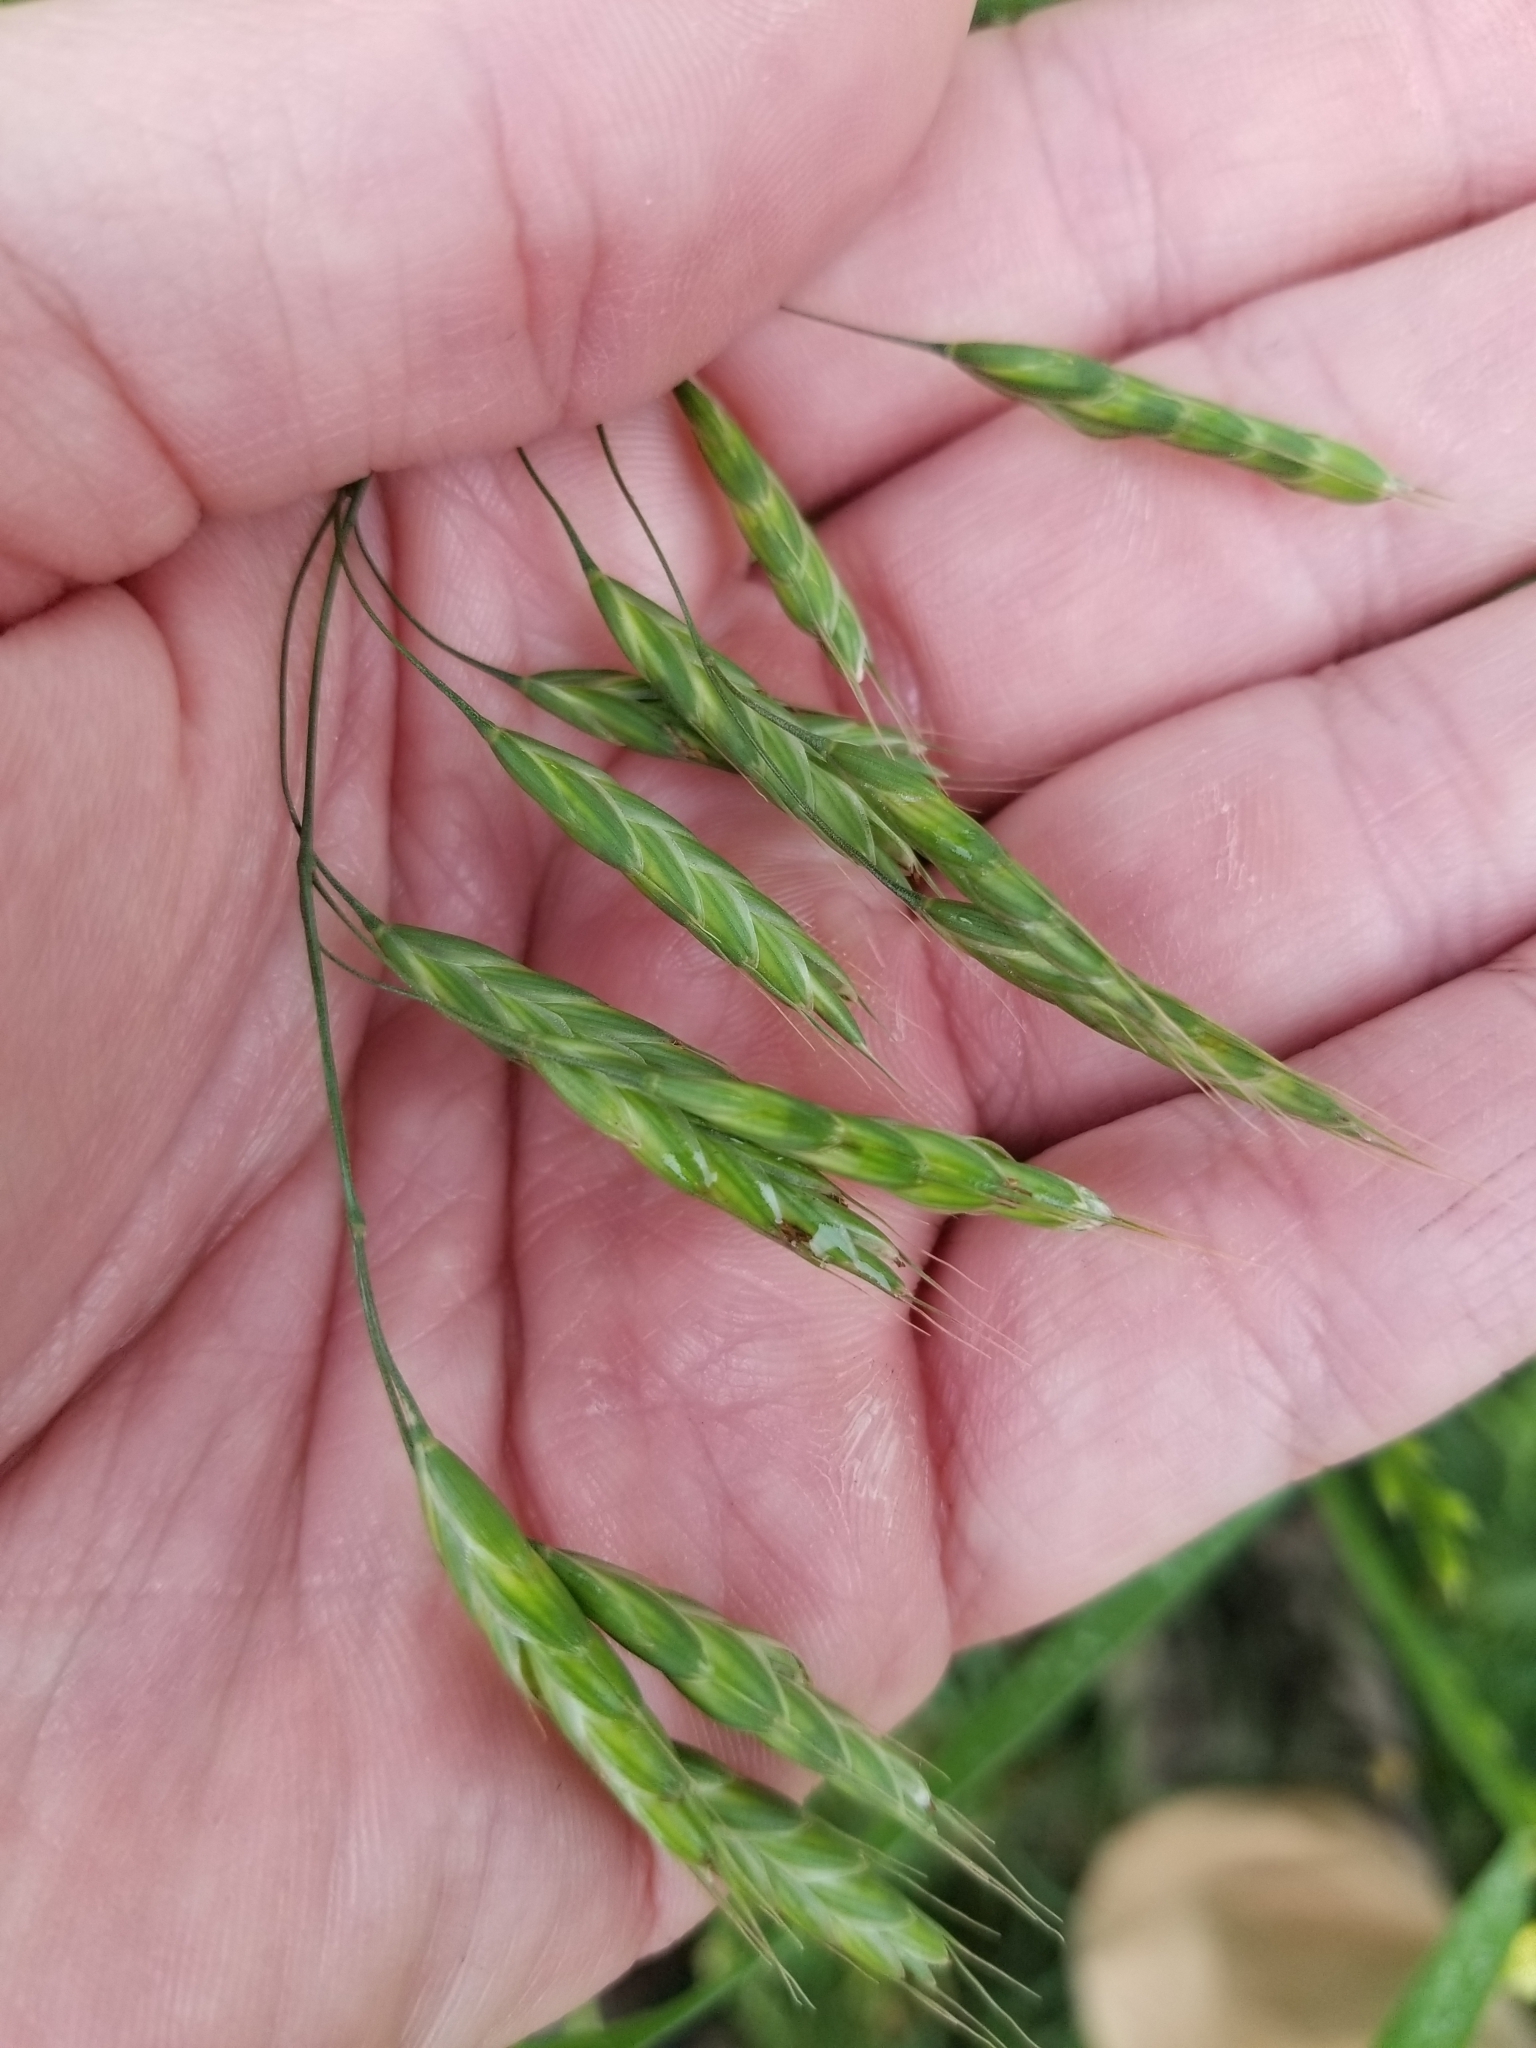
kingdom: Plantae
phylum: Tracheophyta
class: Liliopsida
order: Poales
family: Poaceae
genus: Bromus
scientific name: Bromus japonicus
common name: Japanese brome
